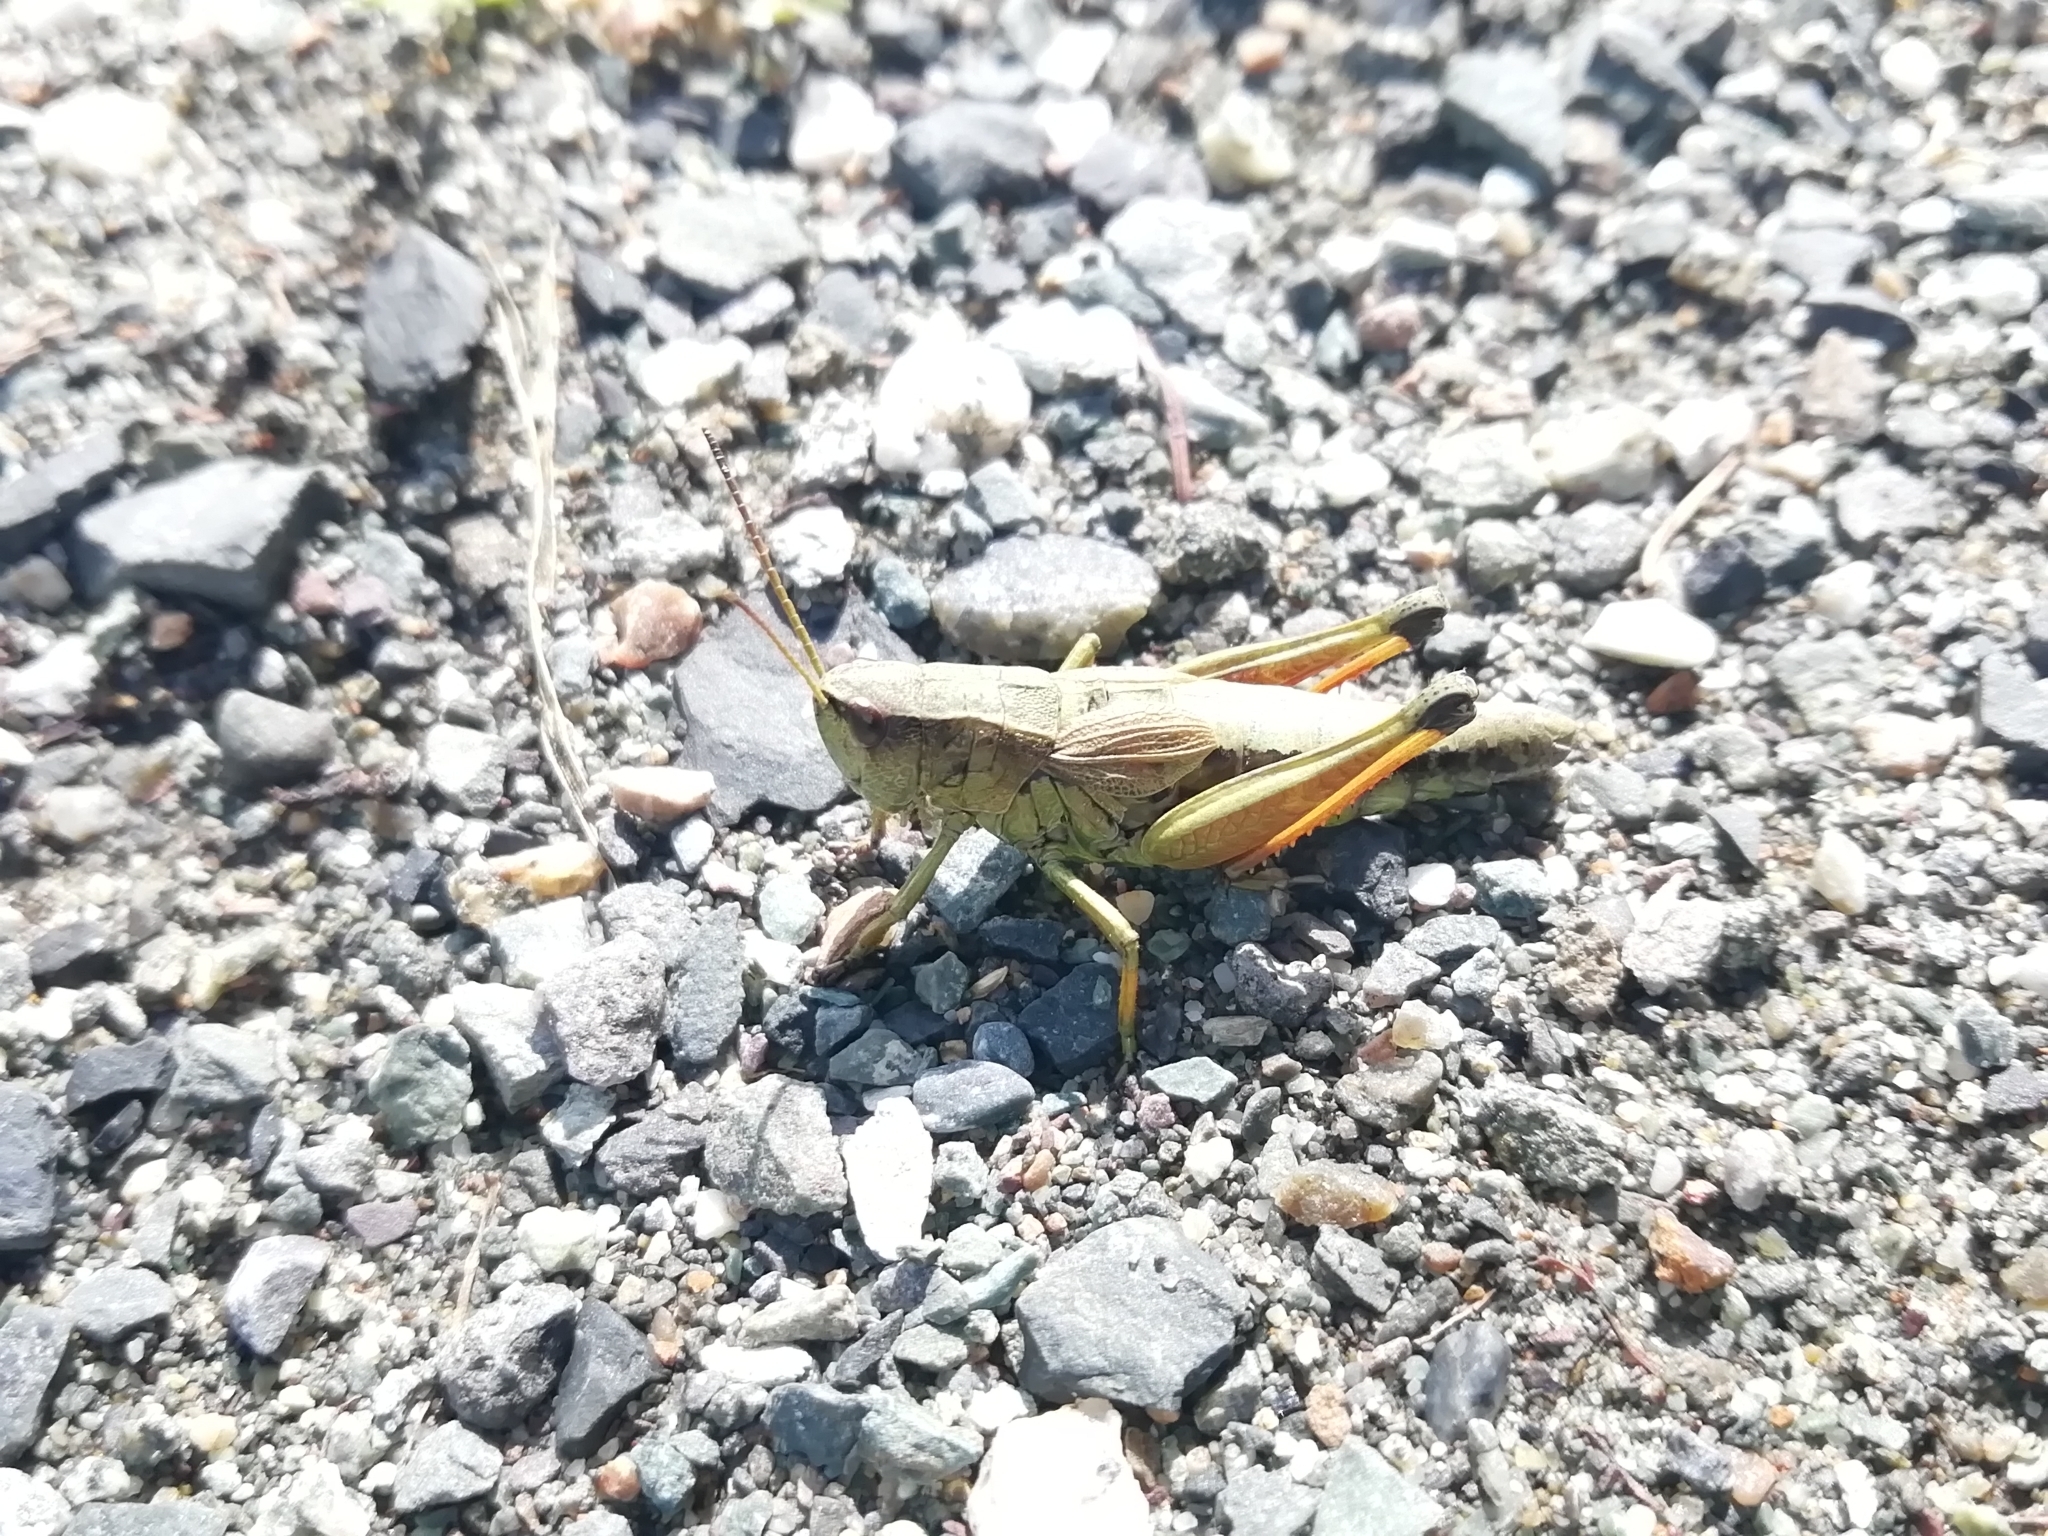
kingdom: Animalia
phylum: Arthropoda
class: Insecta
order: Orthoptera
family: Acrididae
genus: Podismopsis
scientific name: Podismopsis poppiusi
